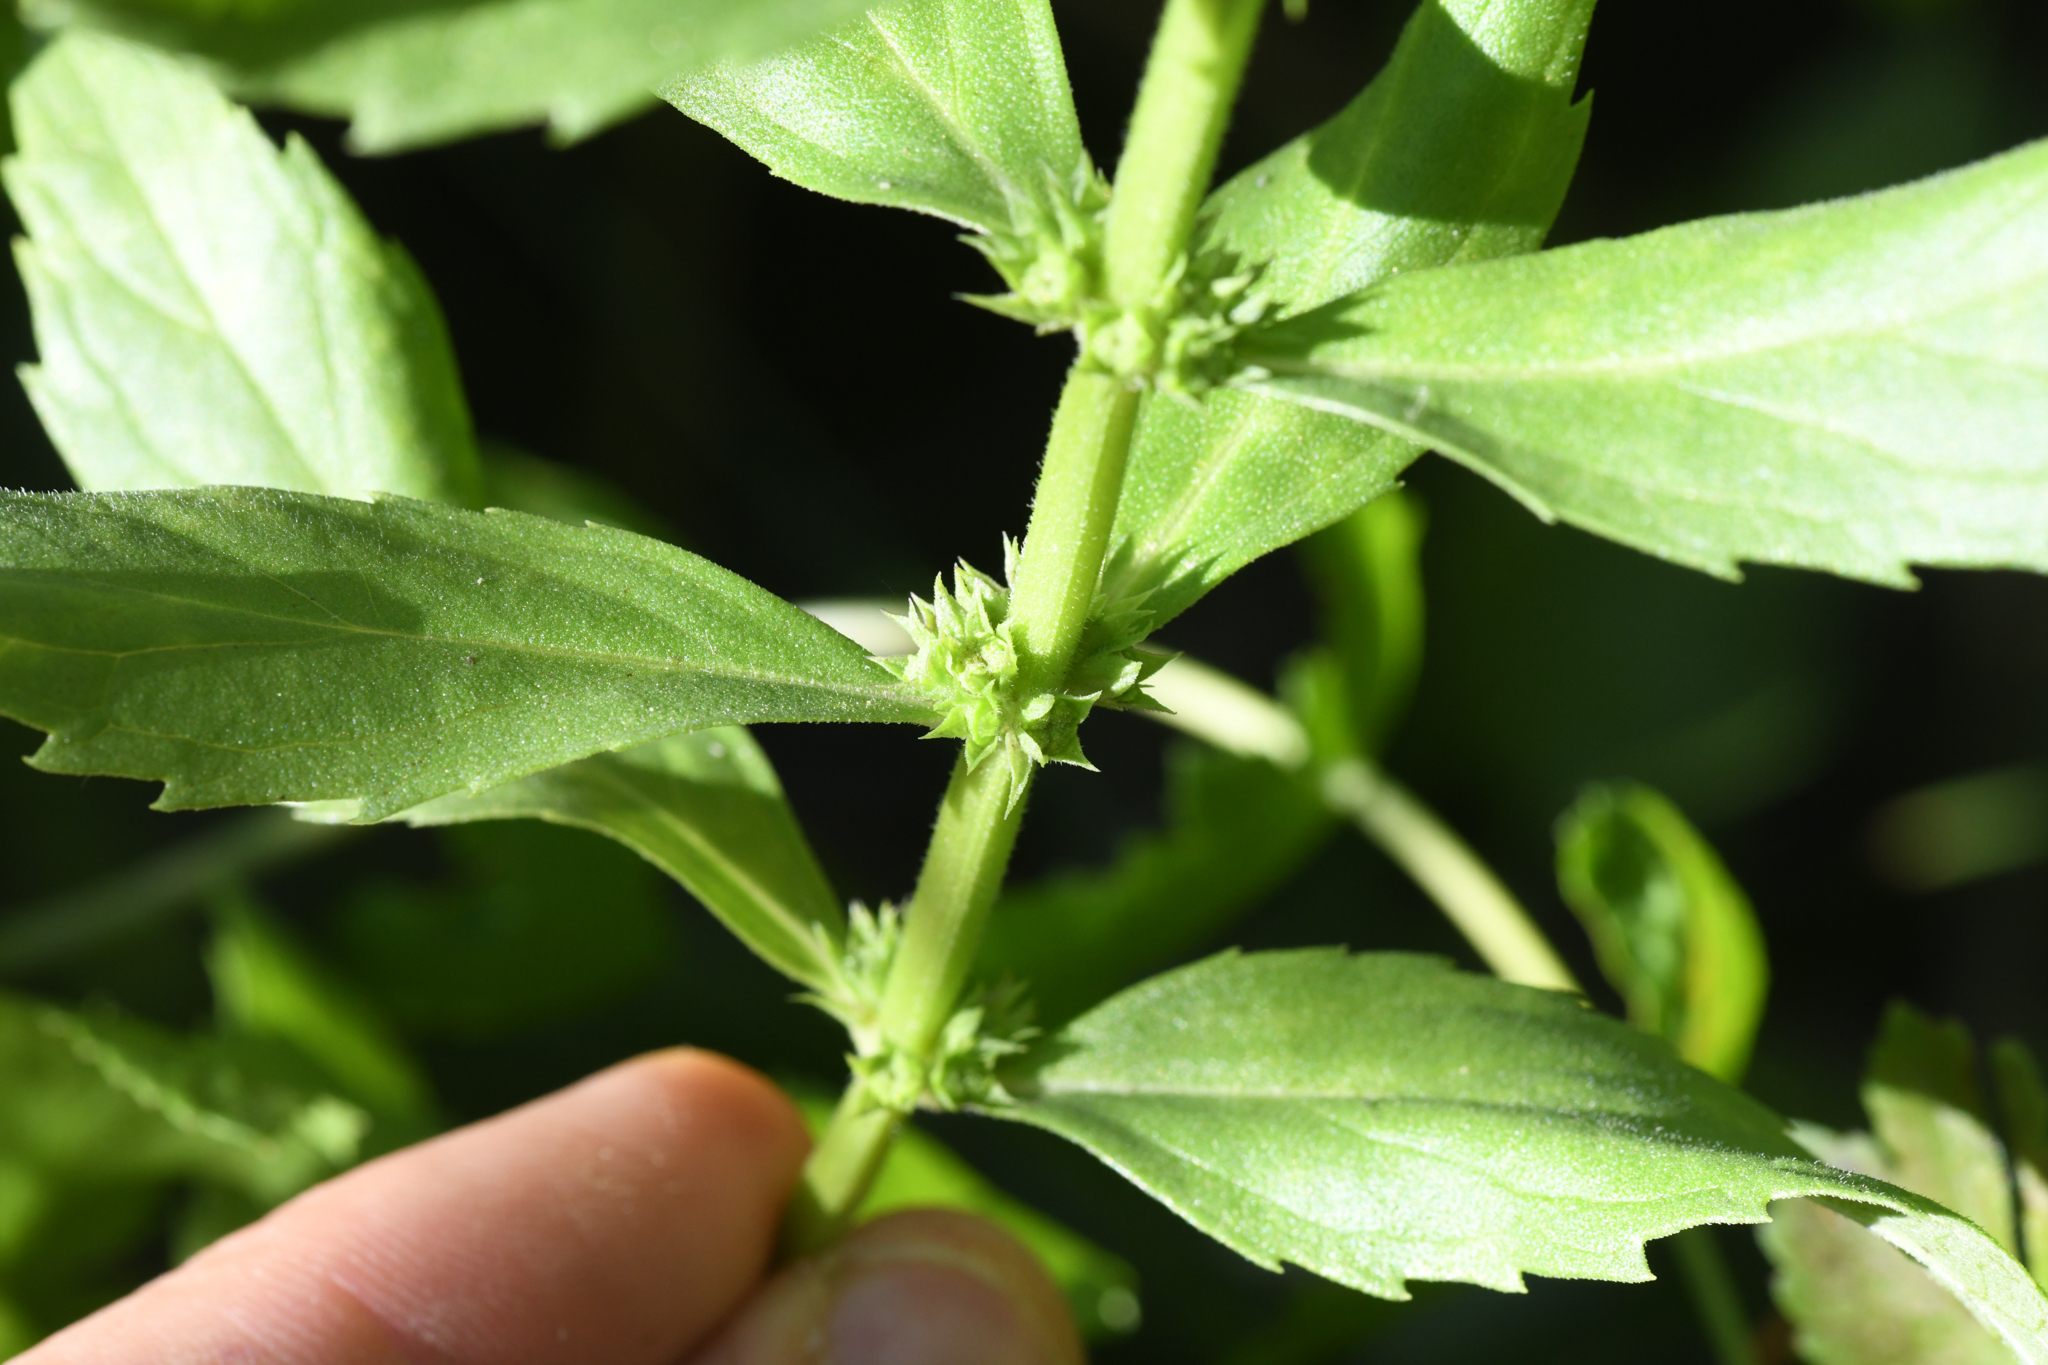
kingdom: Plantae
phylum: Tracheophyta
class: Magnoliopsida
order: Lamiales
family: Lamiaceae
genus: Lycopus
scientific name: Lycopus asper
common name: Rough water-horehound
